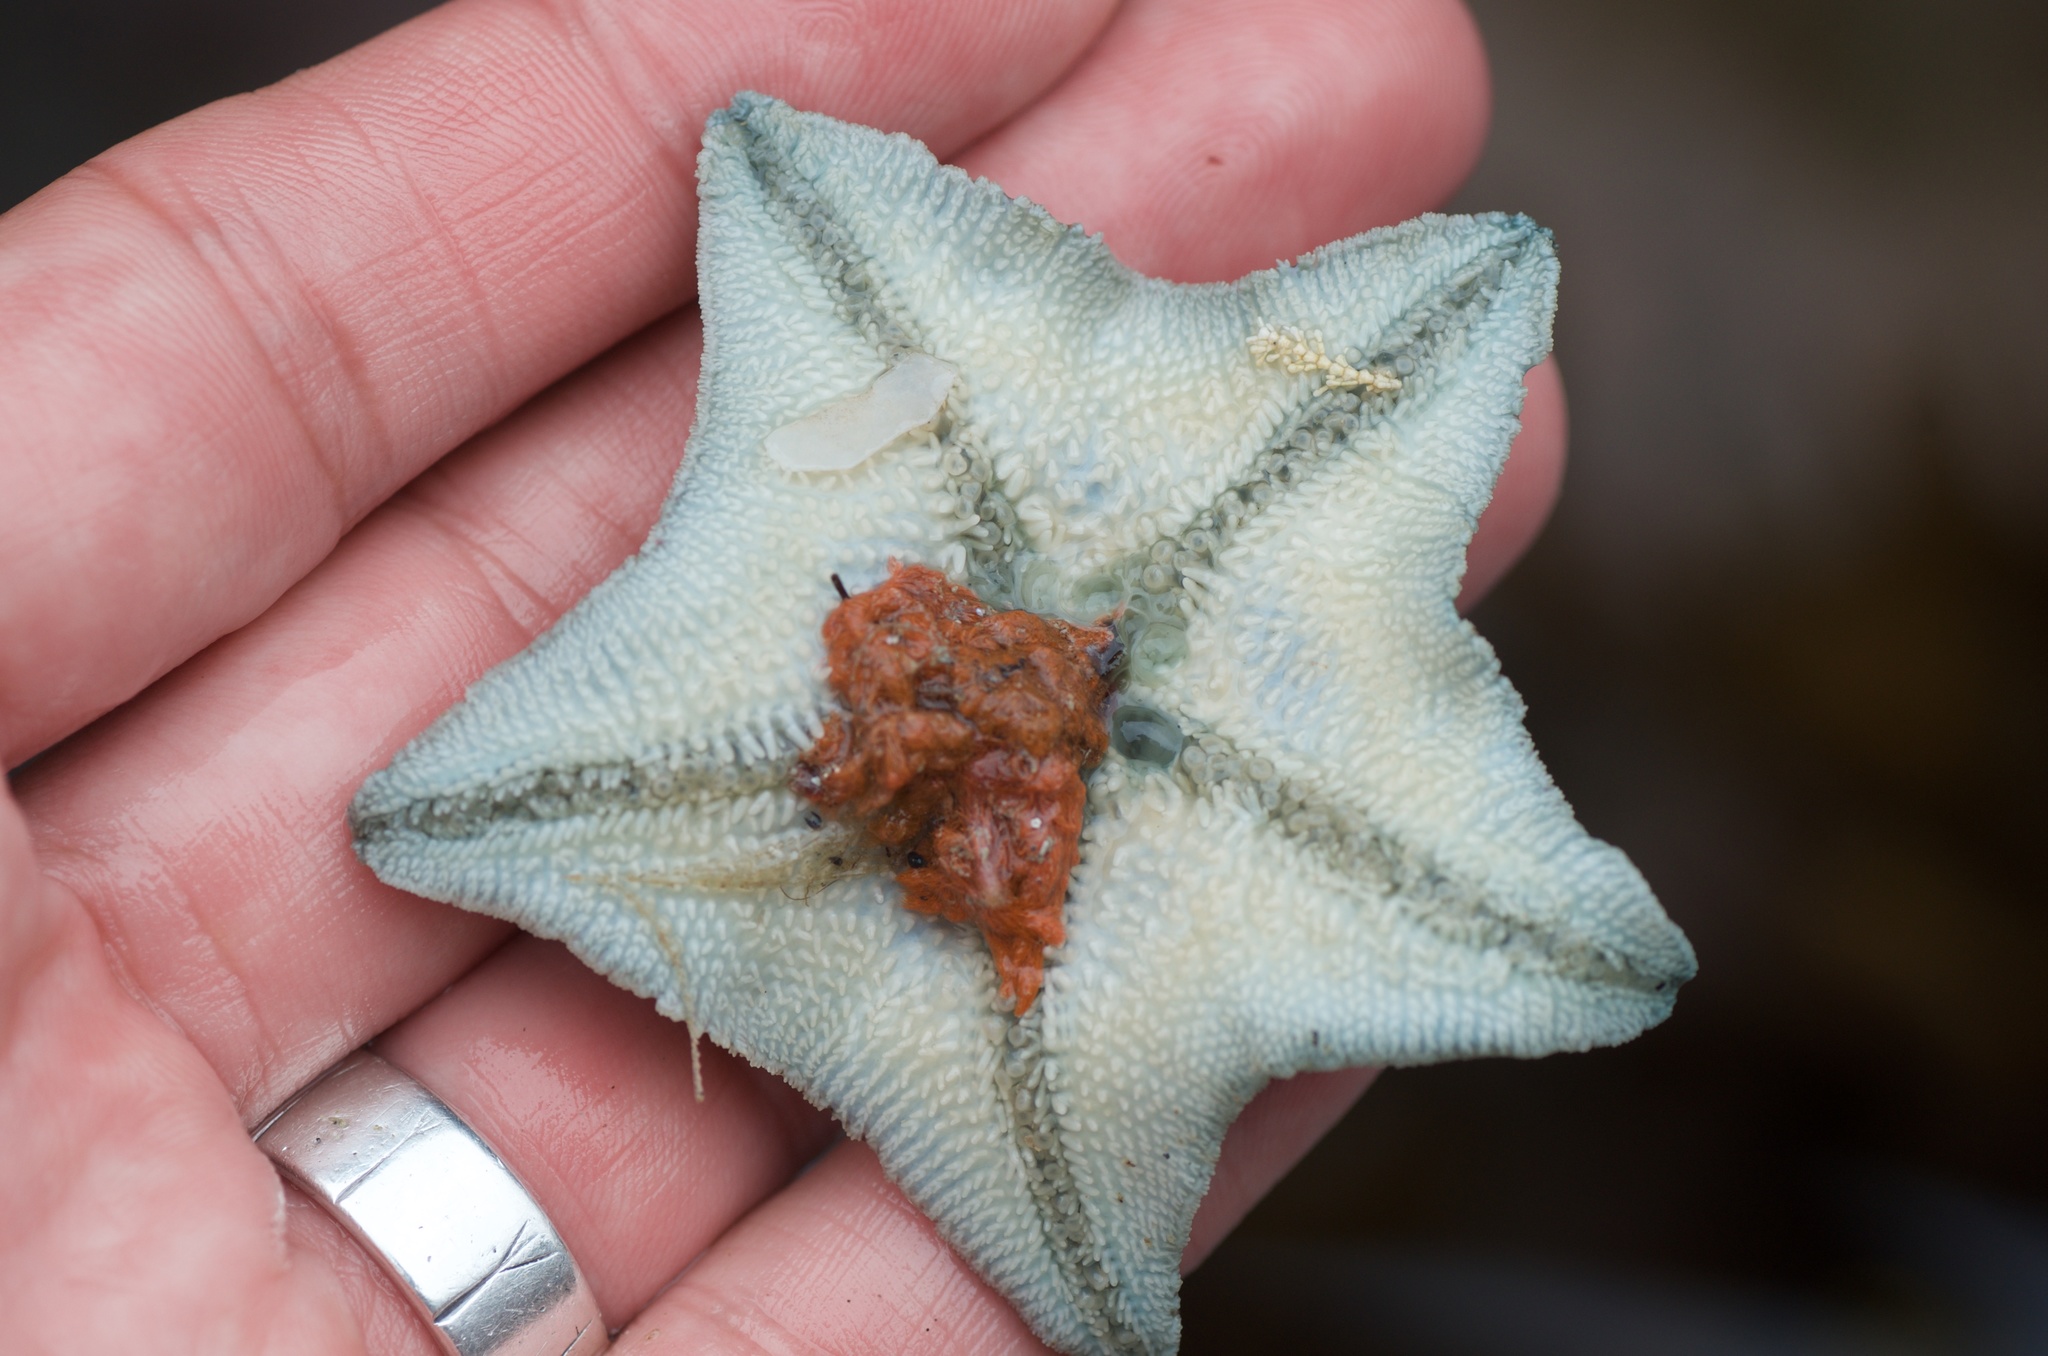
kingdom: Animalia
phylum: Echinodermata
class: Asteroidea
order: Valvatida
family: Asterinidae
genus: Patiriella
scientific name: Patiriella regularis
